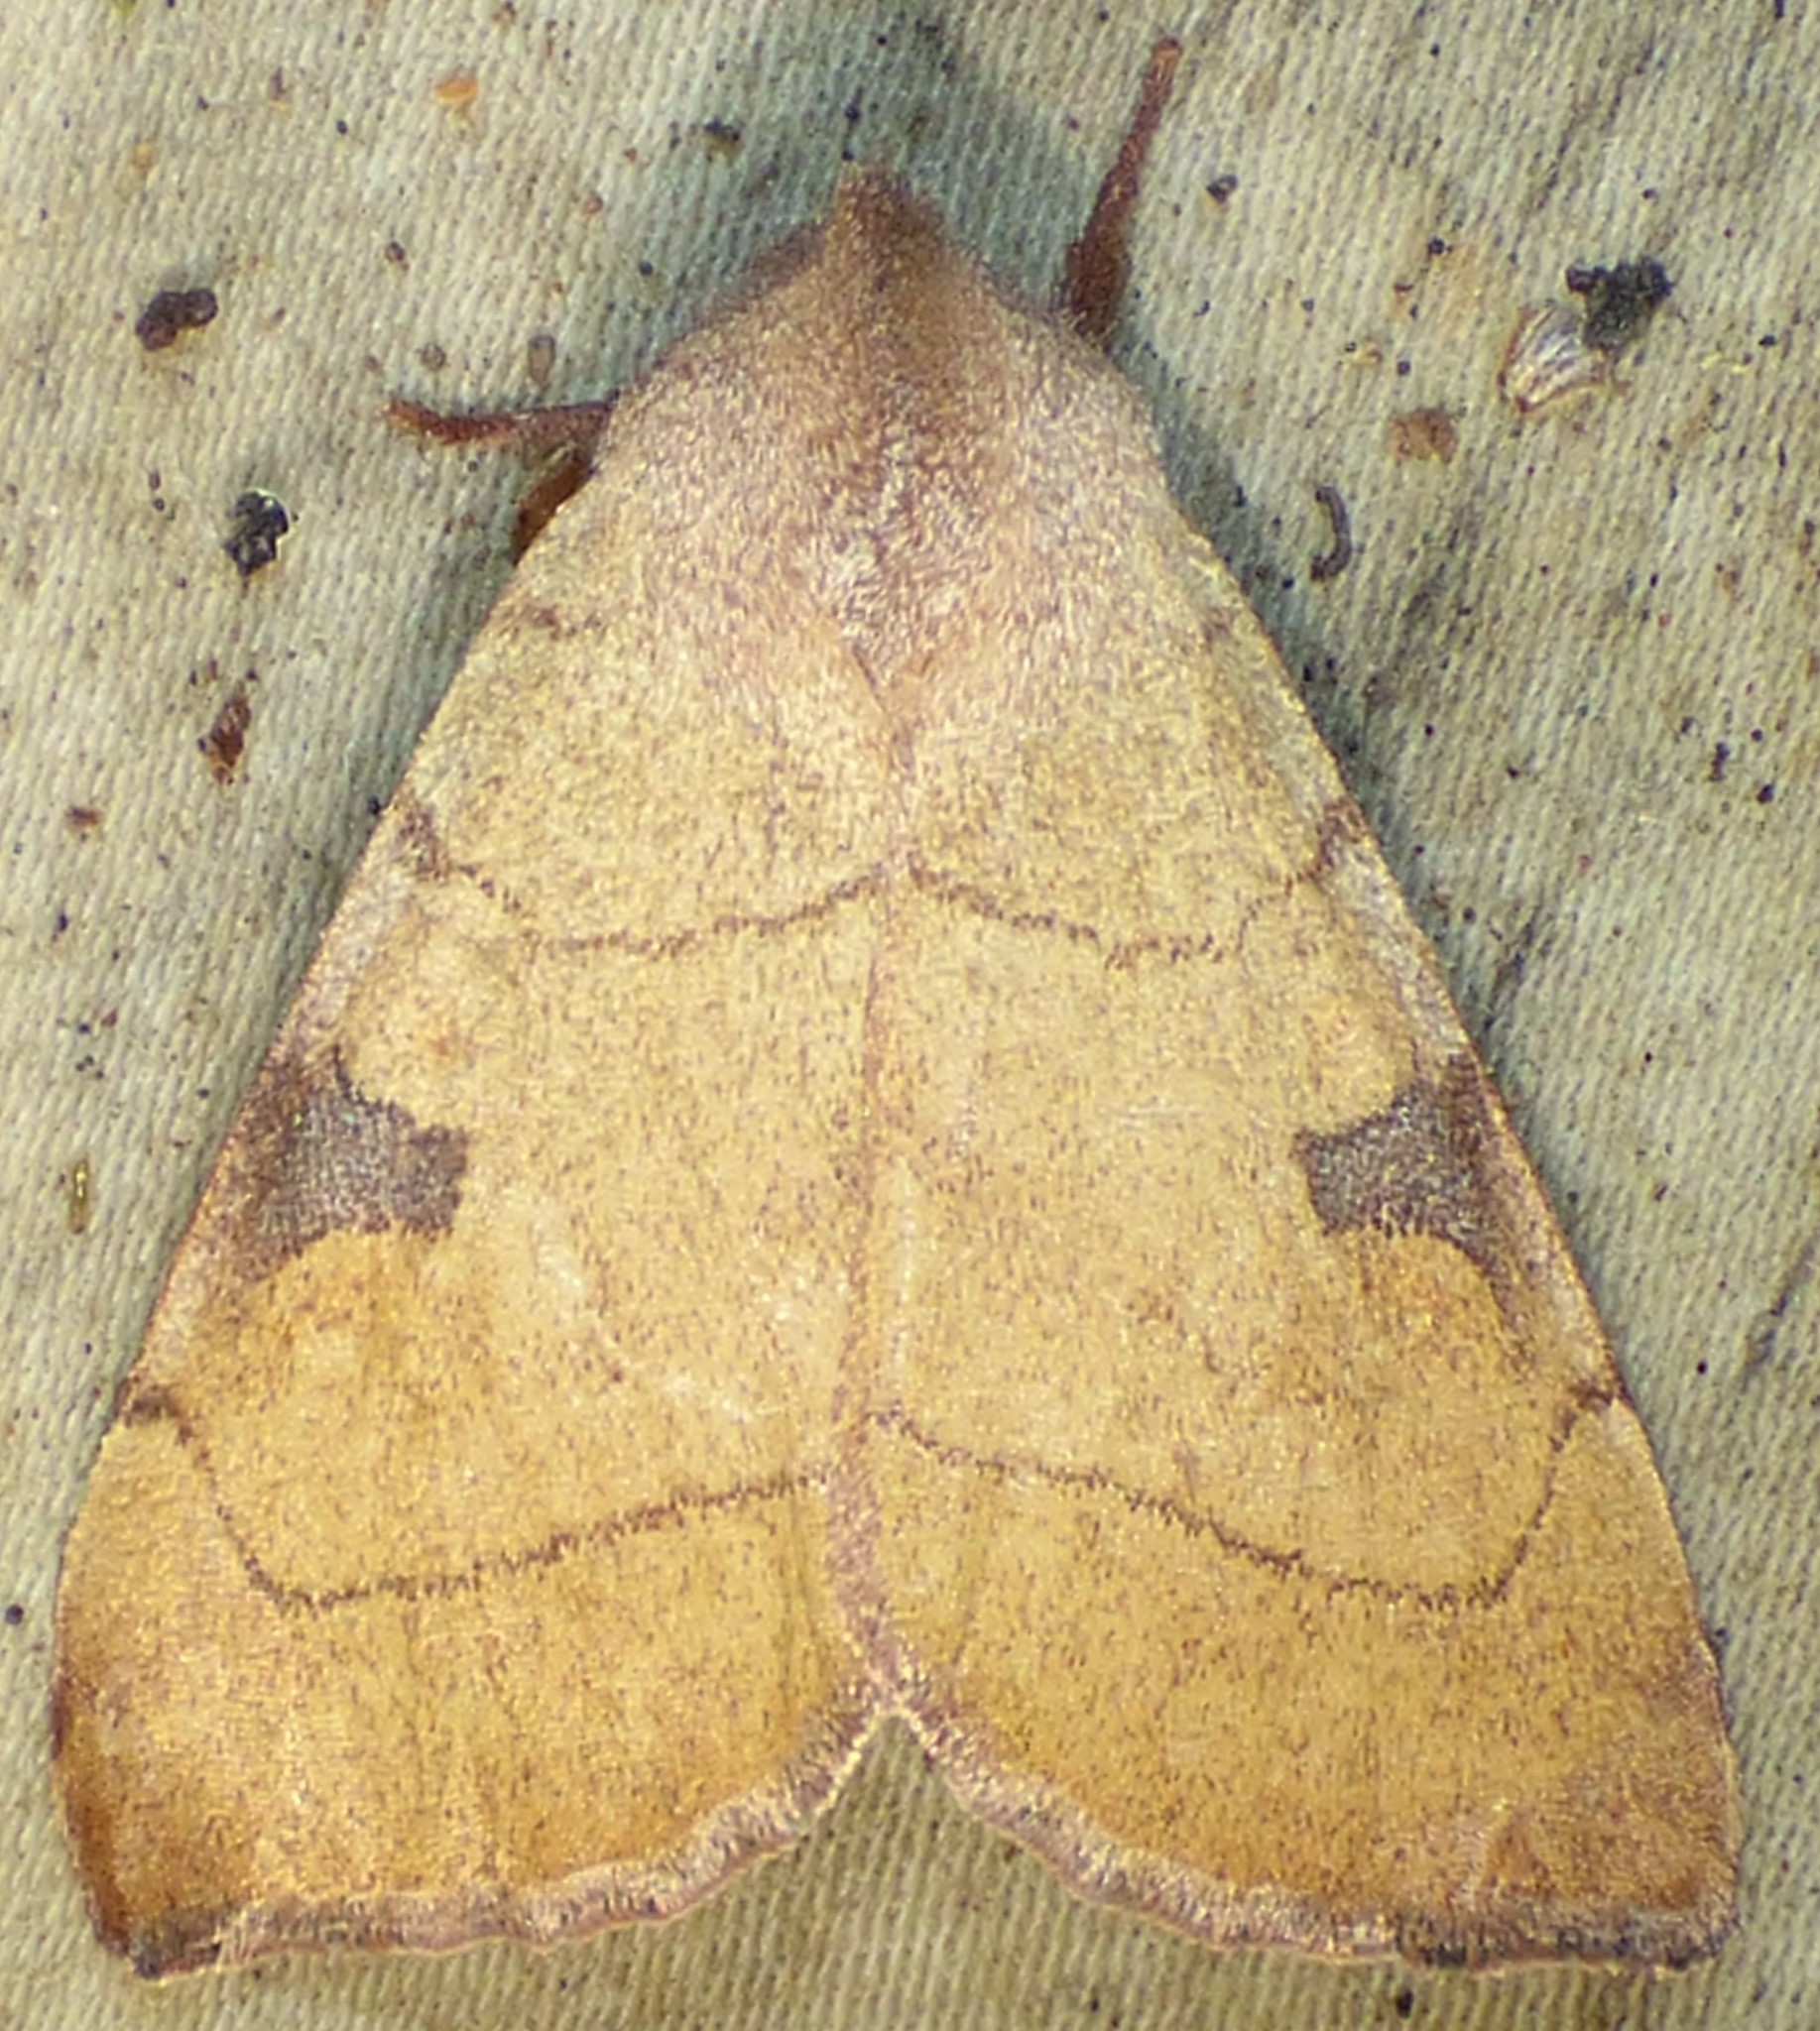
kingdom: Animalia
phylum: Arthropoda
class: Insecta
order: Lepidoptera
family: Noctuidae
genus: Choephora
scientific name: Choephora fungorum
